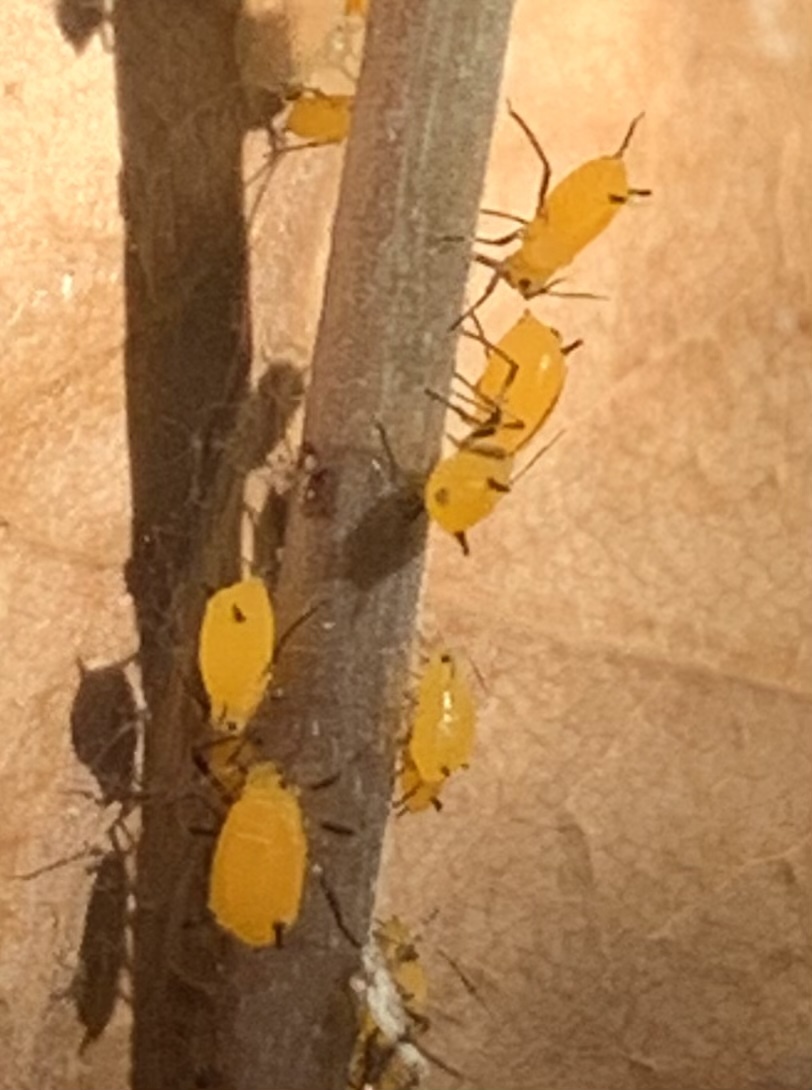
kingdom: Animalia
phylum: Arthropoda
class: Insecta
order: Hemiptera
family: Aphididae
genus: Aphis
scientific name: Aphis nerii
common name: Oleander aphid
